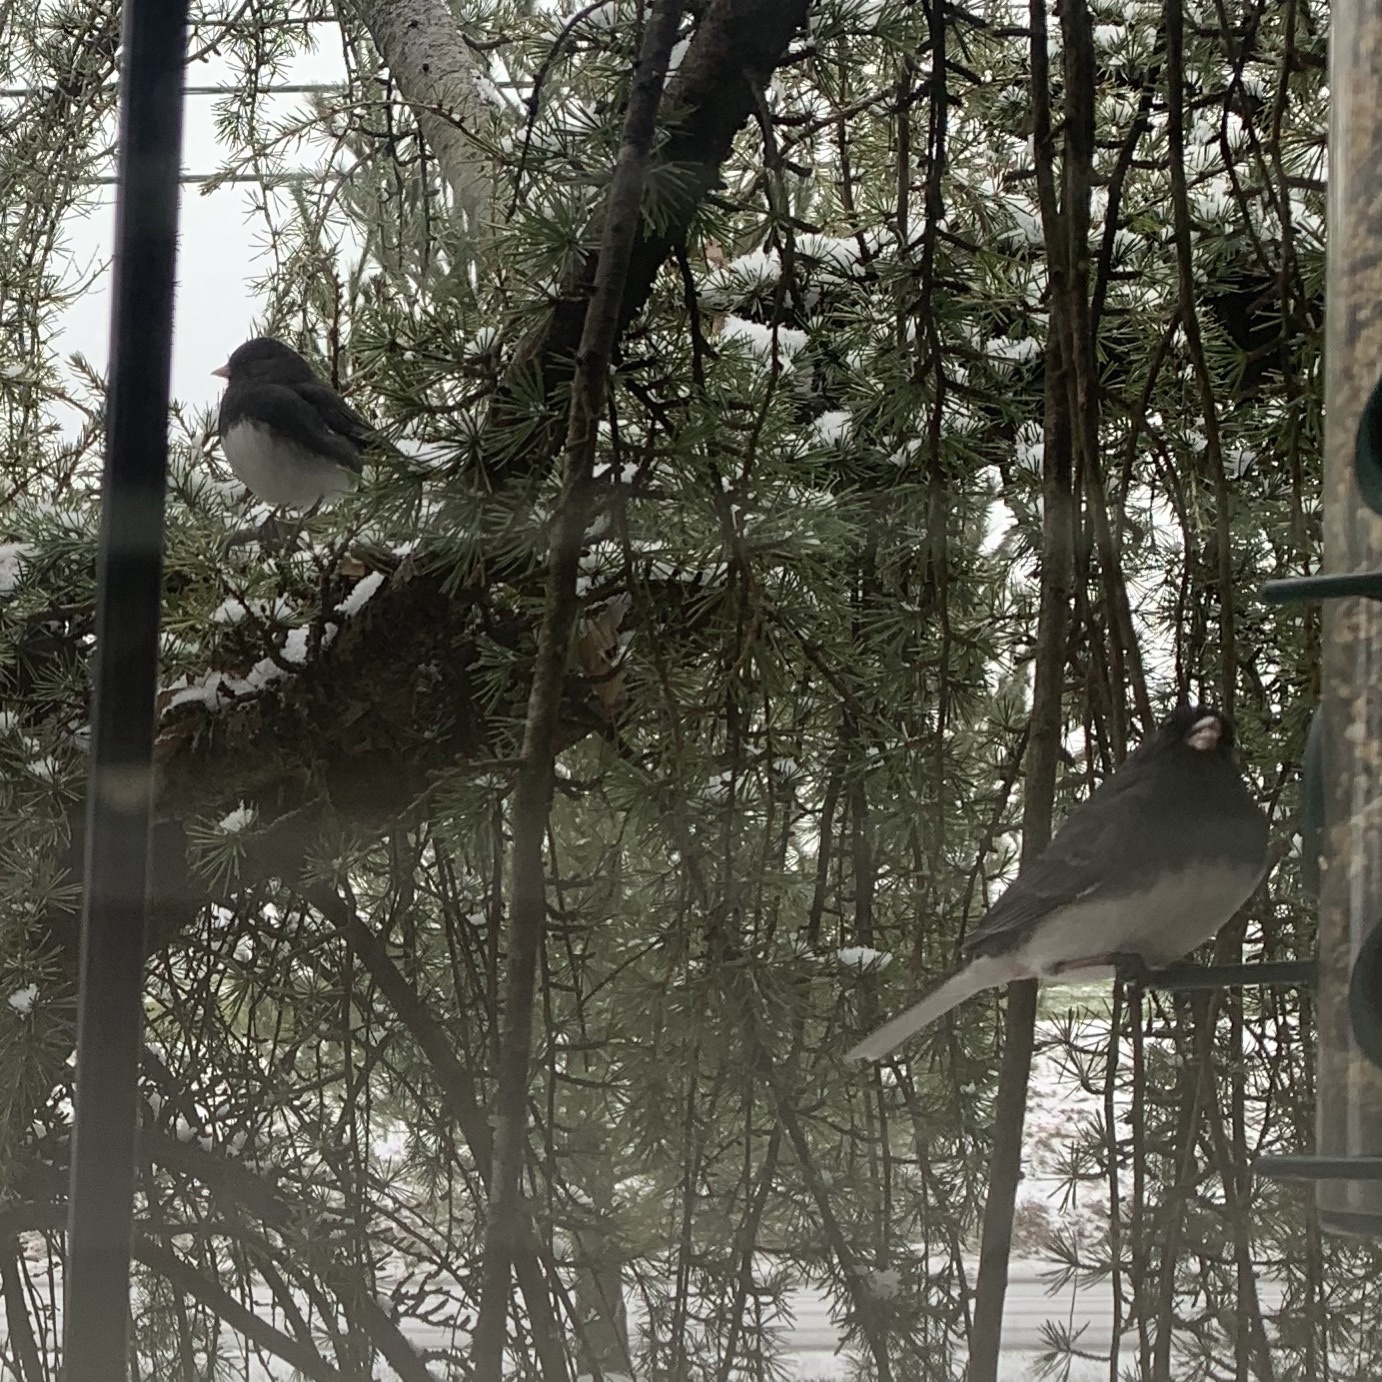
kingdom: Animalia
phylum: Chordata
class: Aves
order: Passeriformes
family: Passerellidae
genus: Junco
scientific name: Junco hyemalis
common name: Dark-eyed junco
